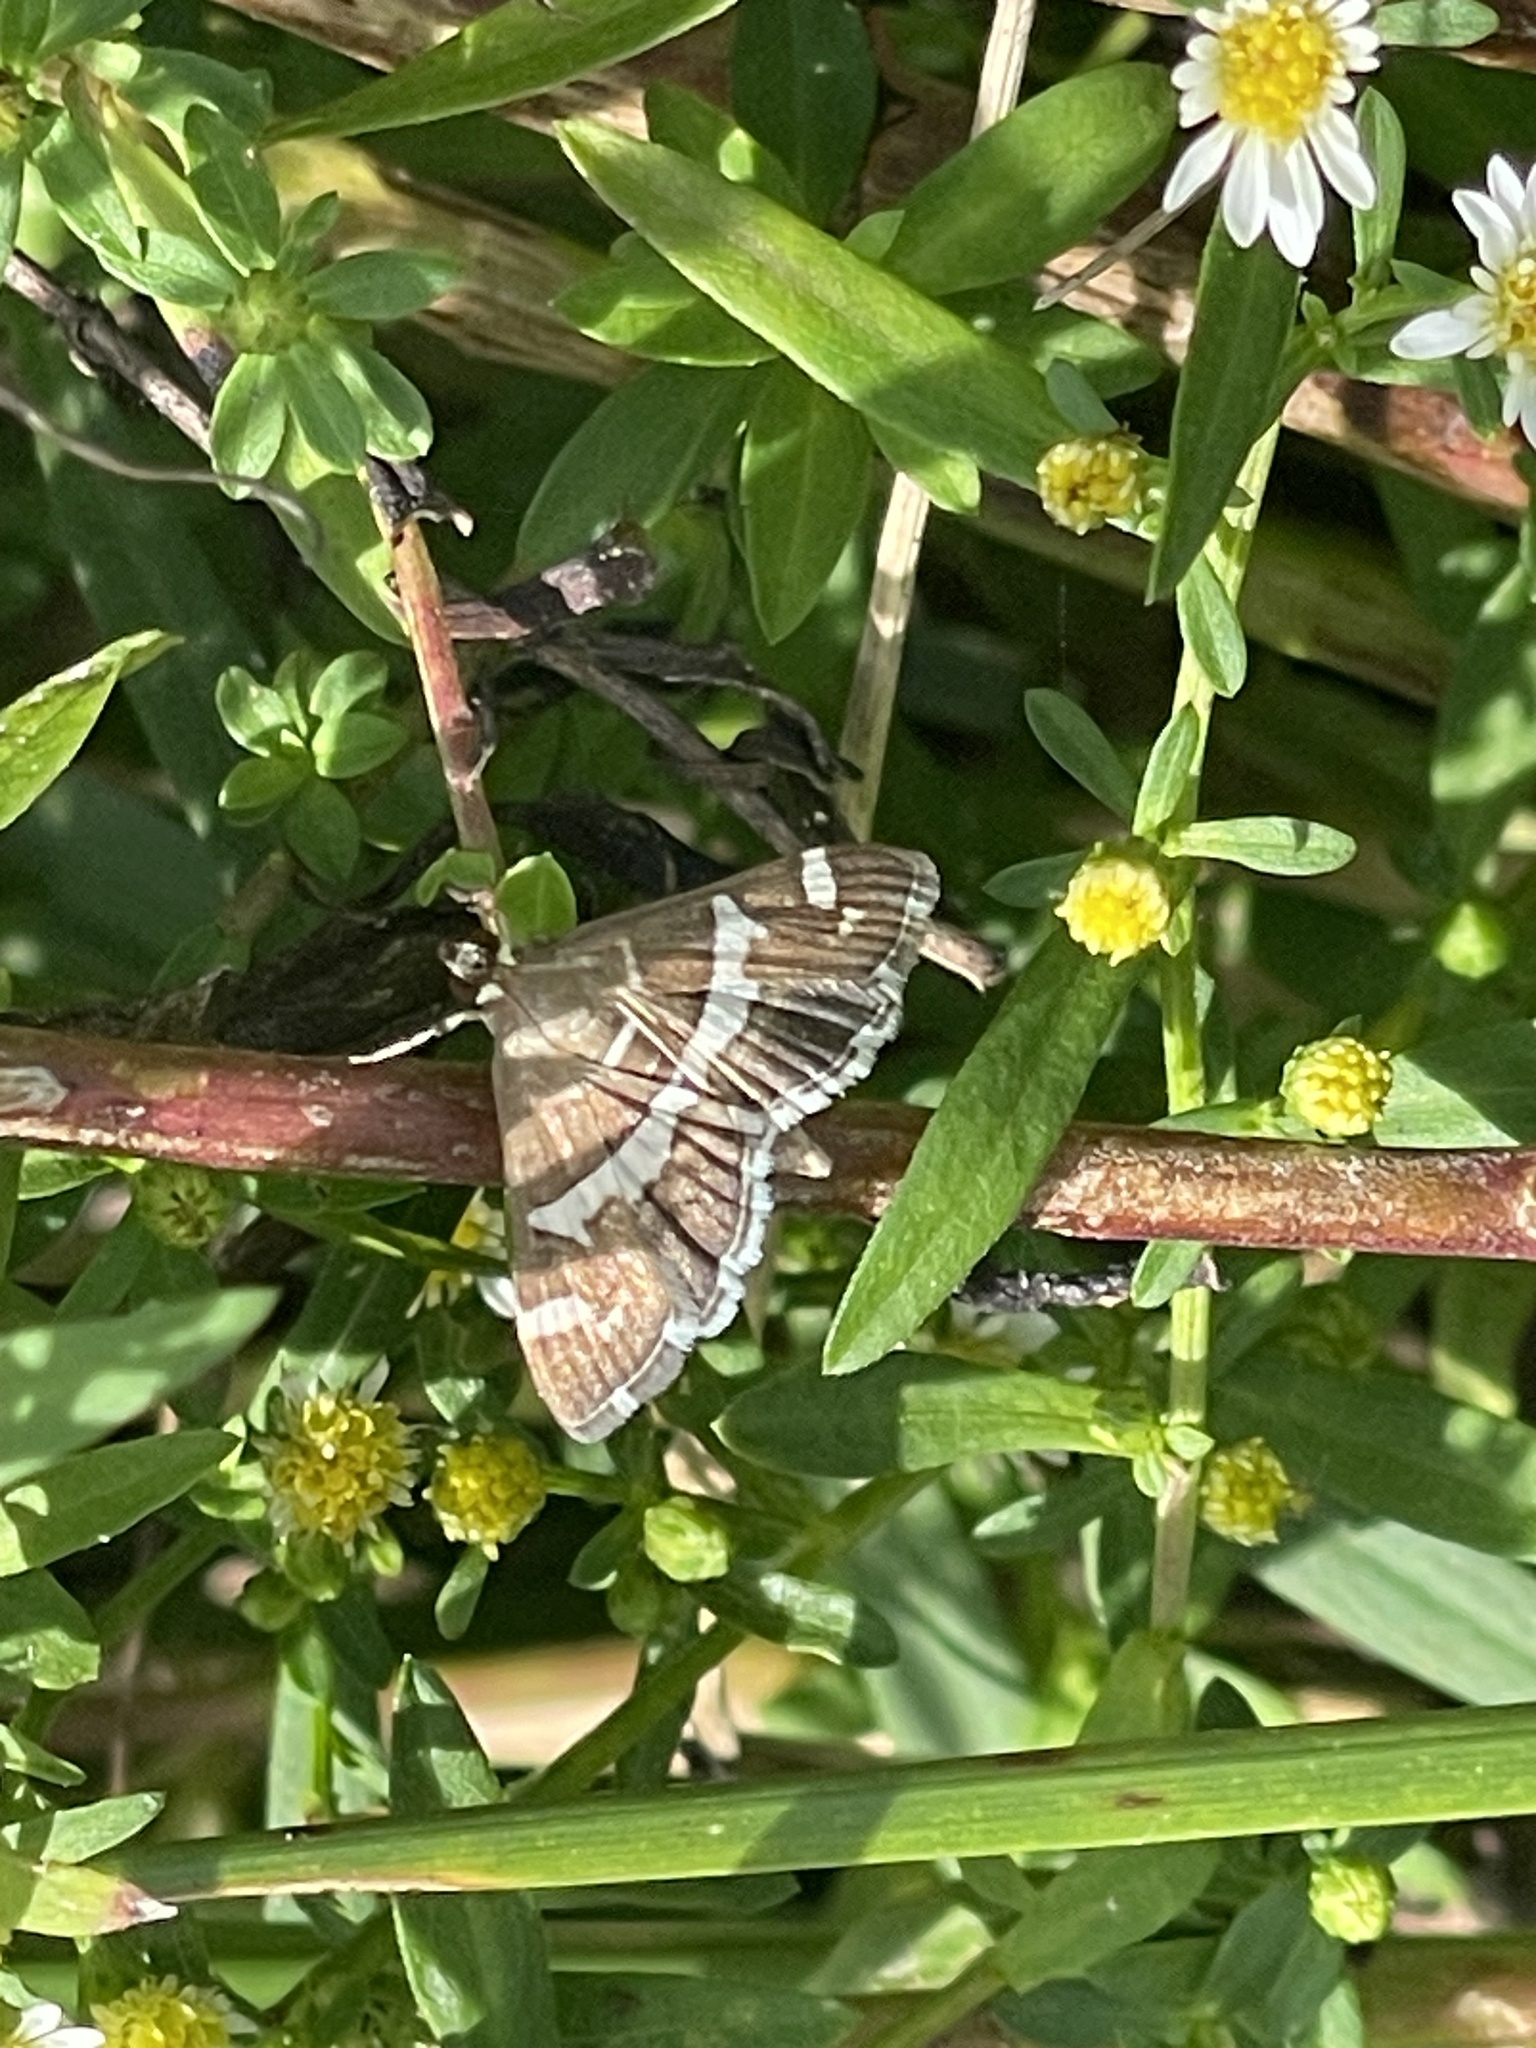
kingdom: Animalia
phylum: Arthropoda
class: Insecta
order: Lepidoptera
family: Crambidae
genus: Spoladea
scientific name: Spoladea recurvalis
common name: Beet webworm moth
